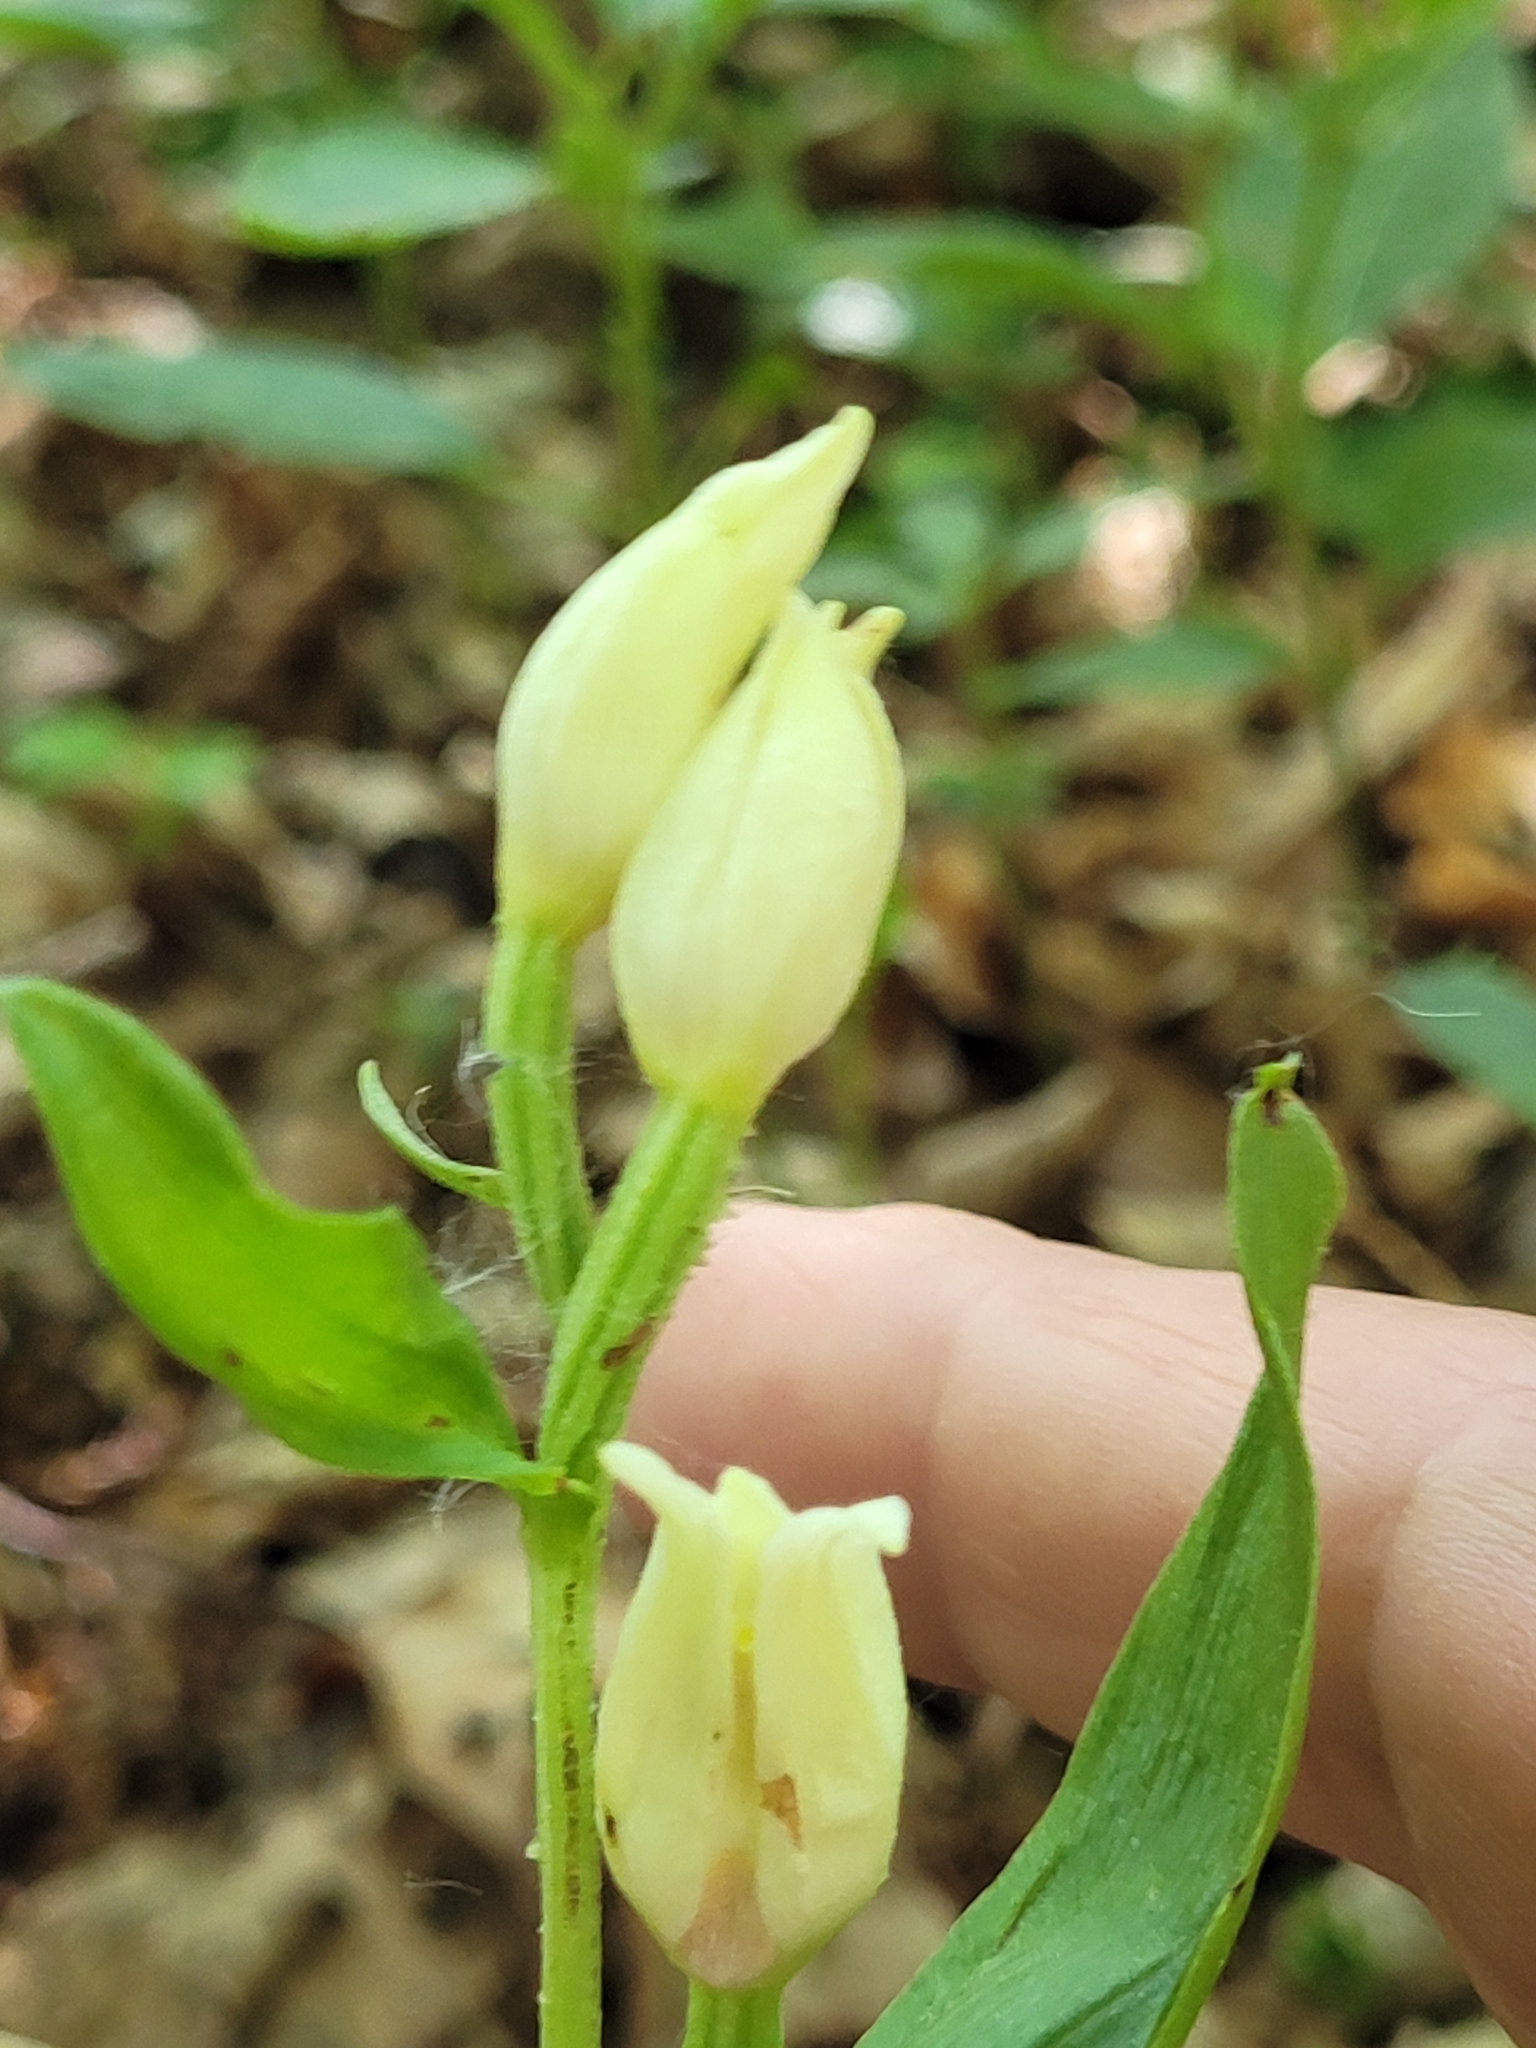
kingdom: Plantae
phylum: Tracheophyta
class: Liliopsida
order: Asparagales
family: Orchidaceae
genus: Cephalanthera
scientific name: Cephalanthera damasonium
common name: White helleborine
